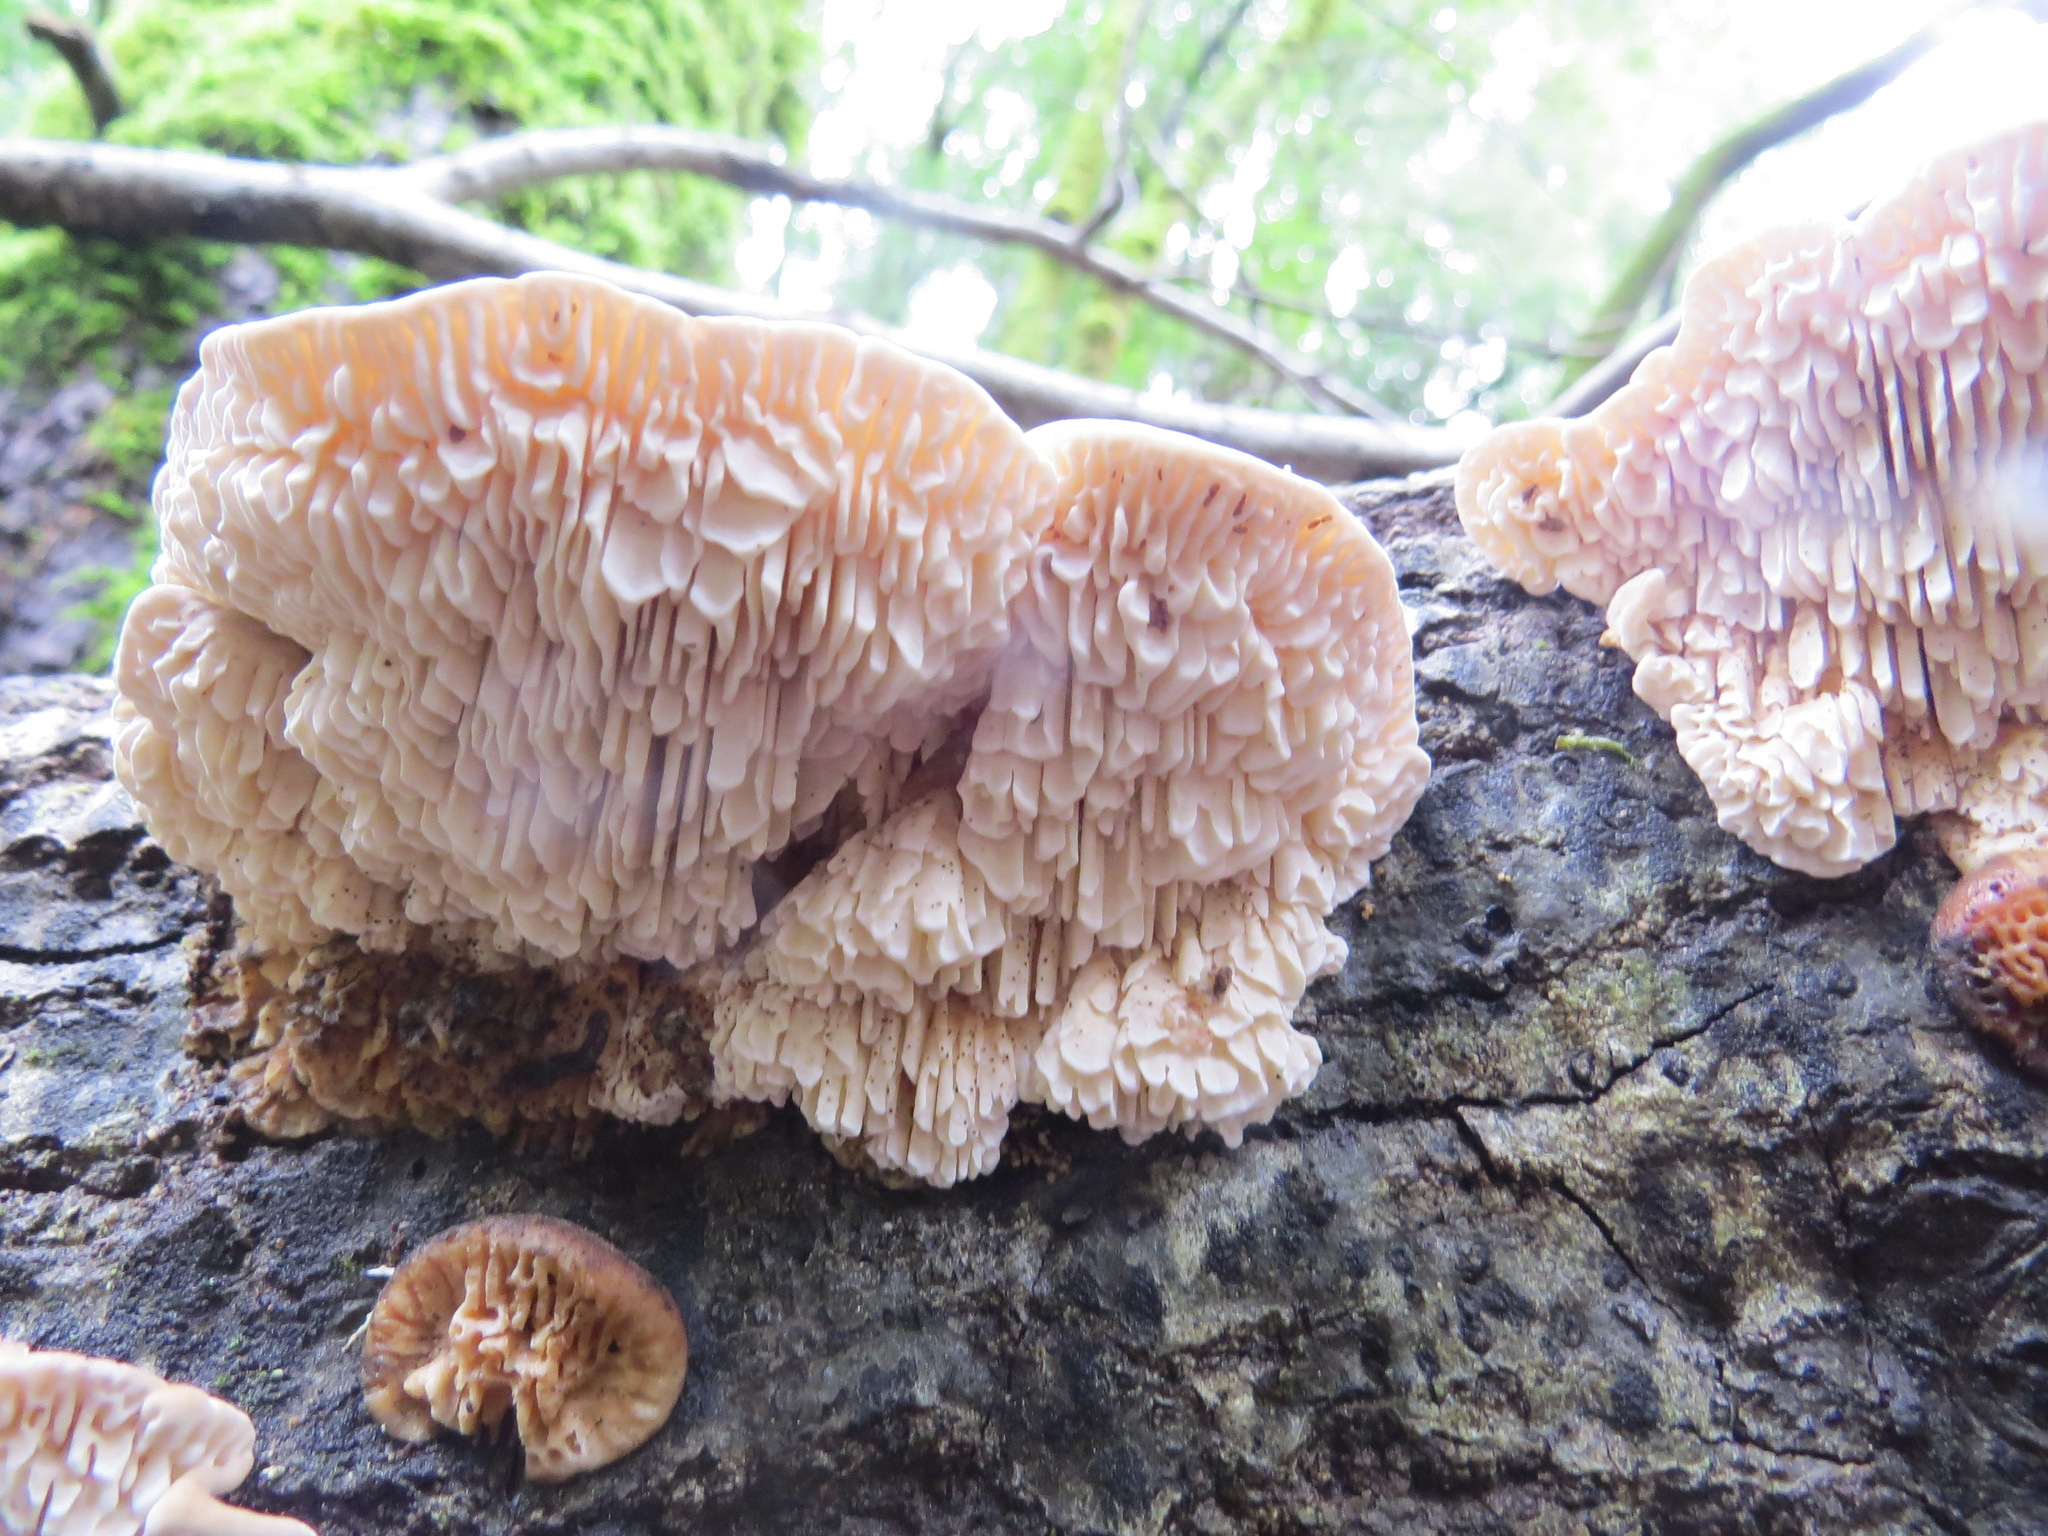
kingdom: Fungi
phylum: Basidiomycota
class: Agaricomycetes
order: Polyporales
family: Polyporaceae
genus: Lenzites
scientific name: Lenzites betulinus
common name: Birch mazegill
